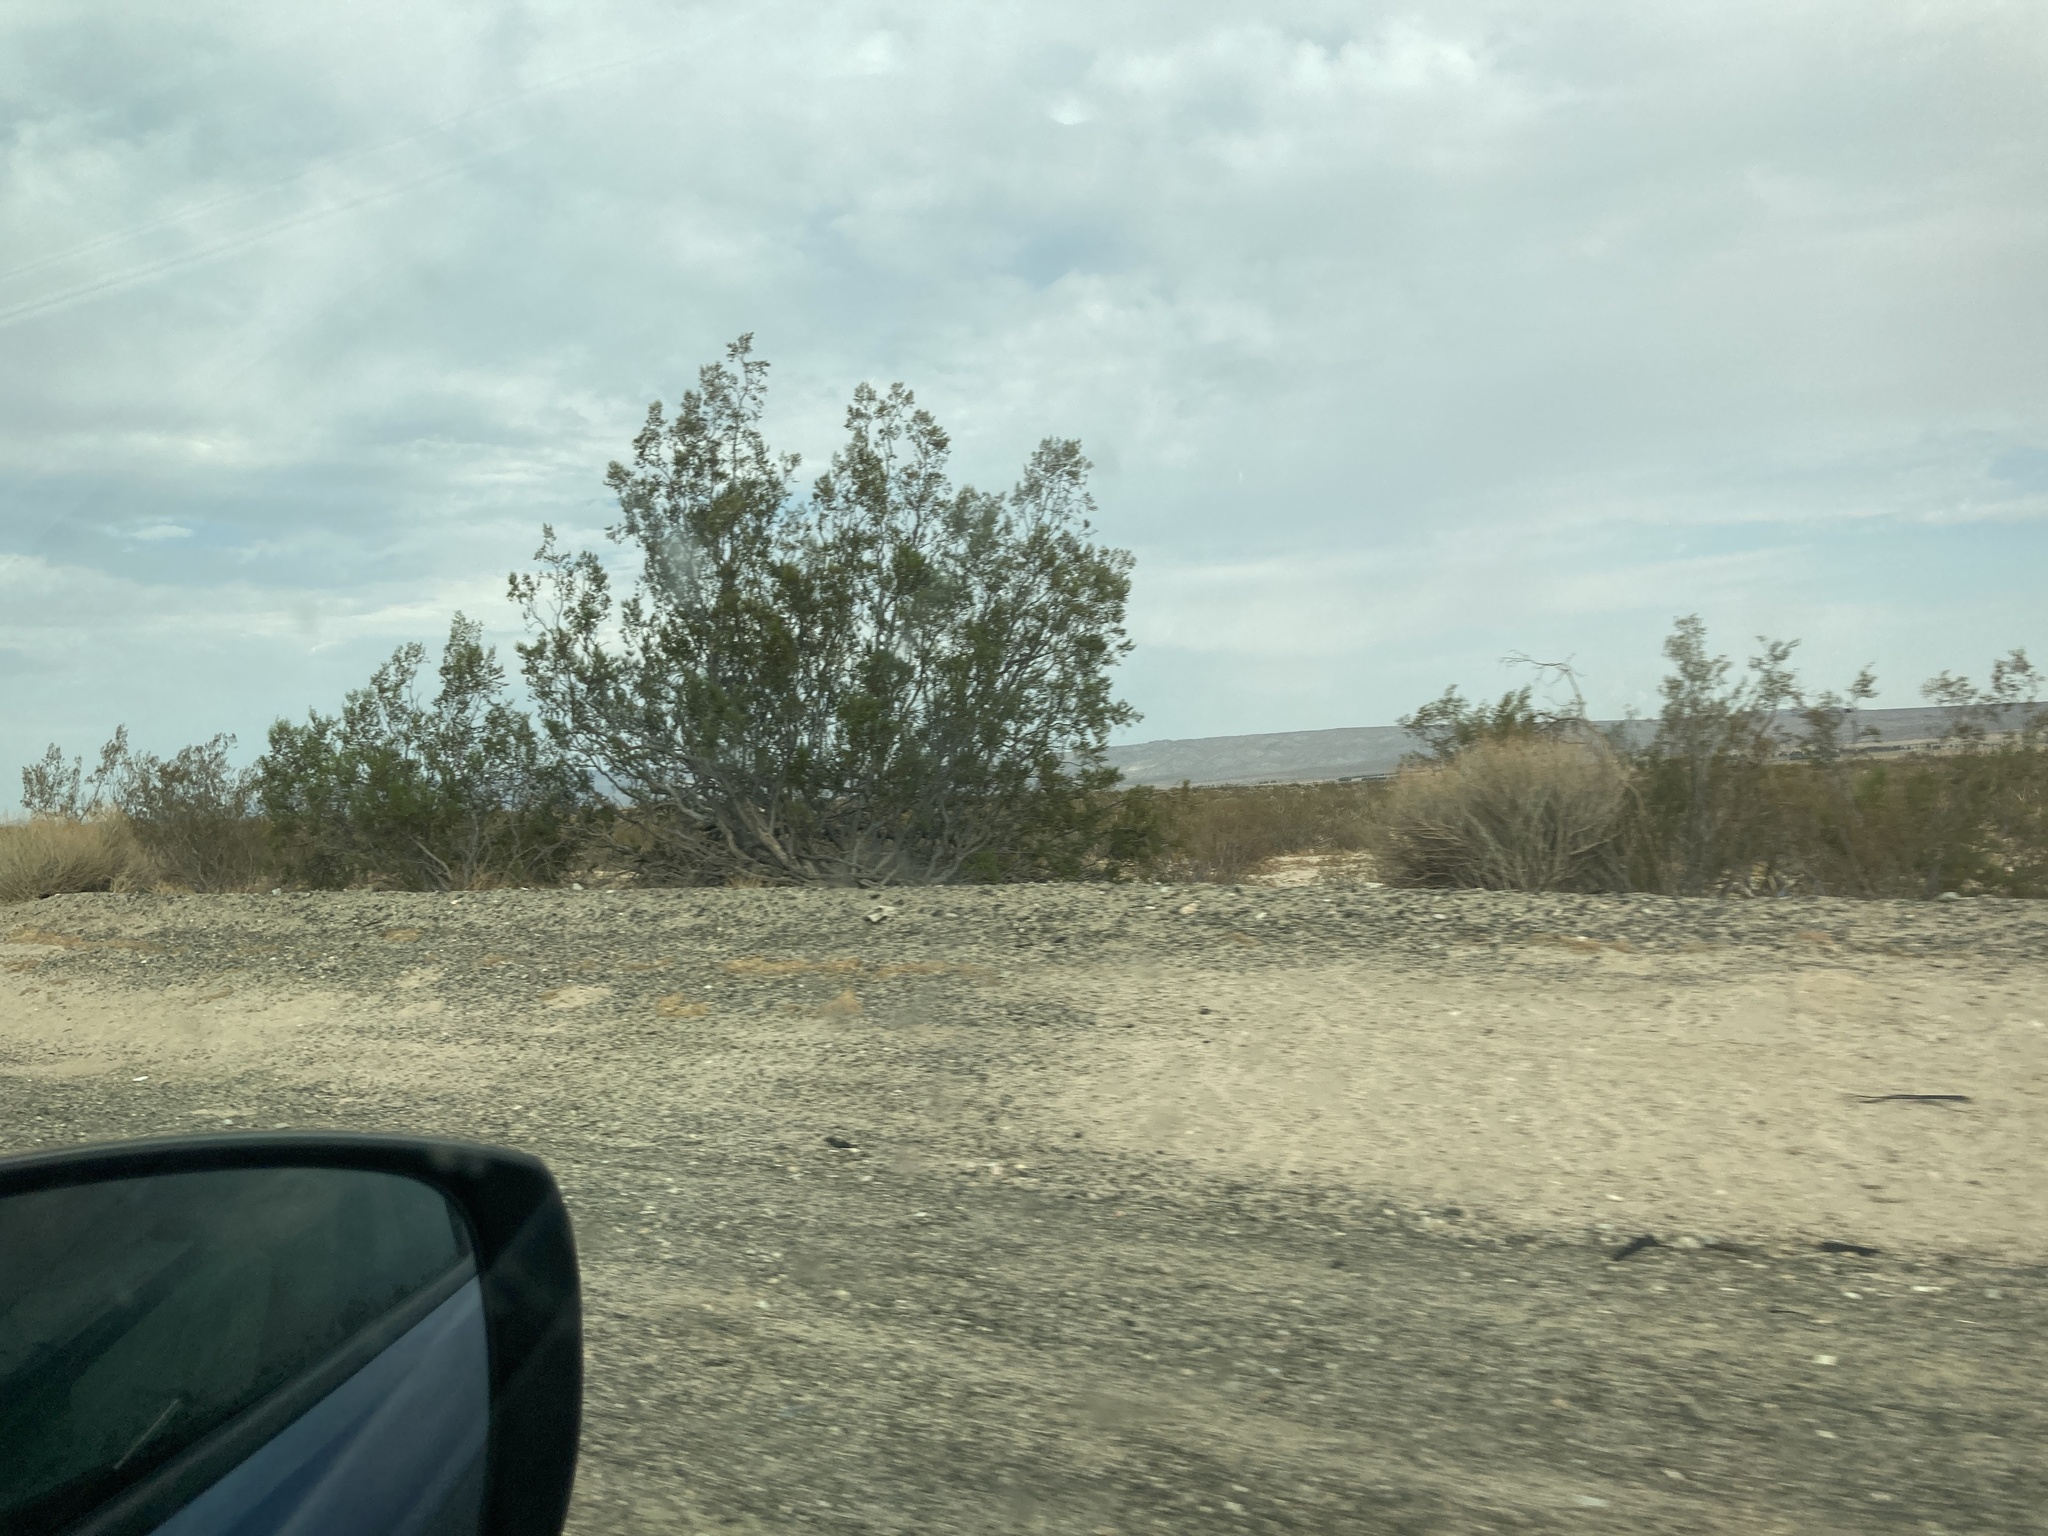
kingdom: Plantae
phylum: Tracheophyta
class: Magnoliopsida
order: Zygophyllales
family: Zygophyllaceae
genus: Larrea
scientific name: Larrea tridentata
